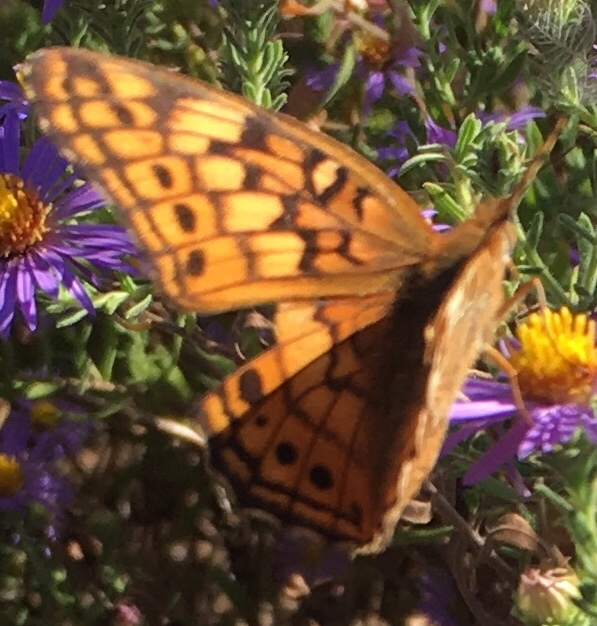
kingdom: Animalia
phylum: Arthropoda
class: Insecta
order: Lepidoptera
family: Nymphalidae
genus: Euptoieta
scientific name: Euptoieta claudia
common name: Variegated fritillary
